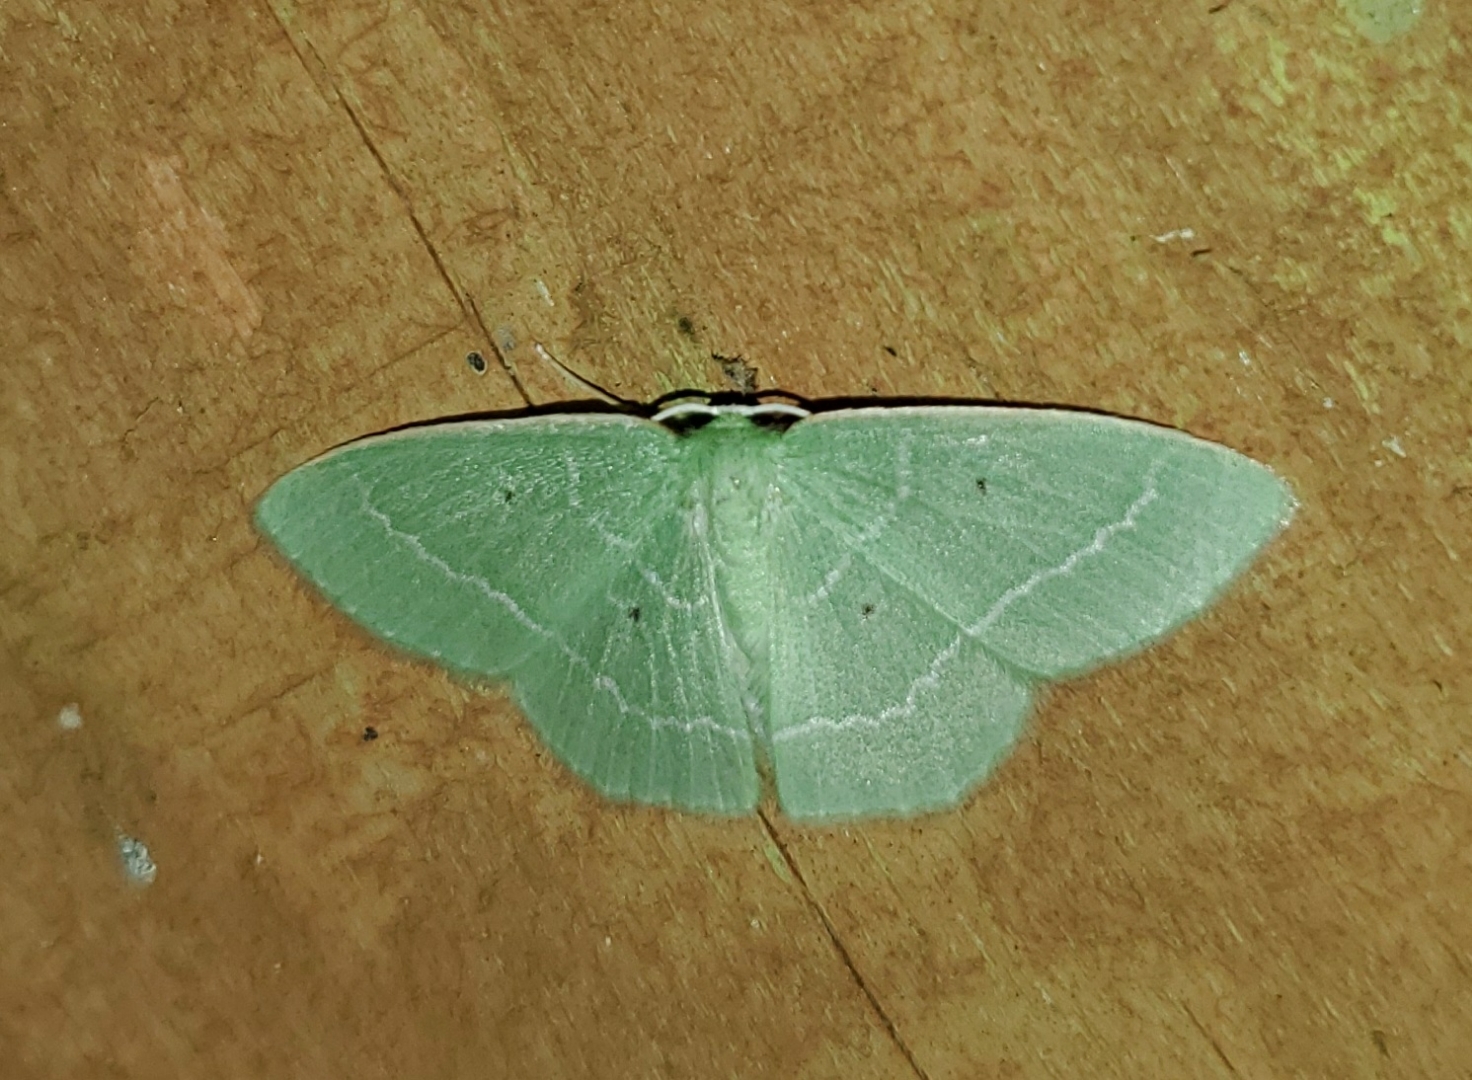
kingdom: Animalia
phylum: Arthropoda
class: Insecta
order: Lepidoptera
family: Geometridae
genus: Nemoria
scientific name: Nemoria elfa
